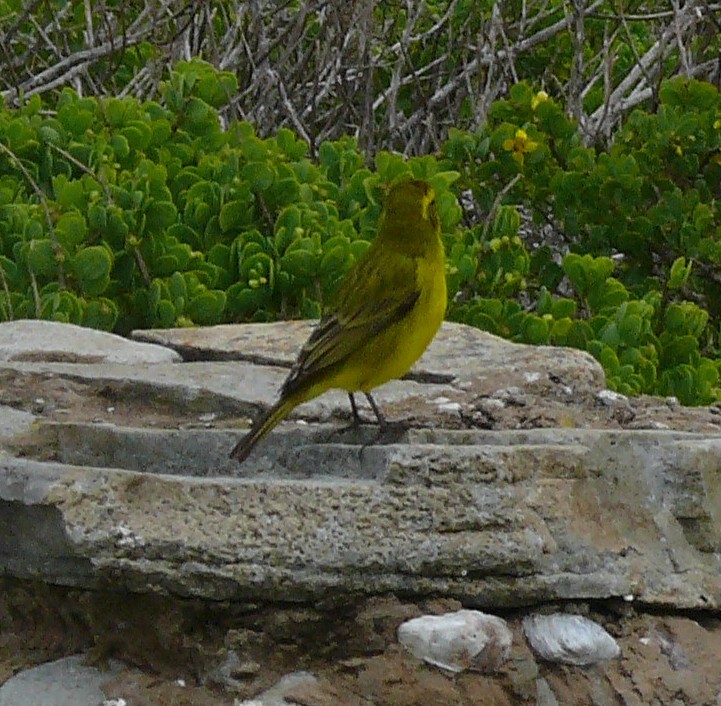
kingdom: Animalia
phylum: Chordata
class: Aves
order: Passeriformes
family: Fringillidae
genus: Crithagra
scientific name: Crithagra flaviventris
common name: Yellow canary
